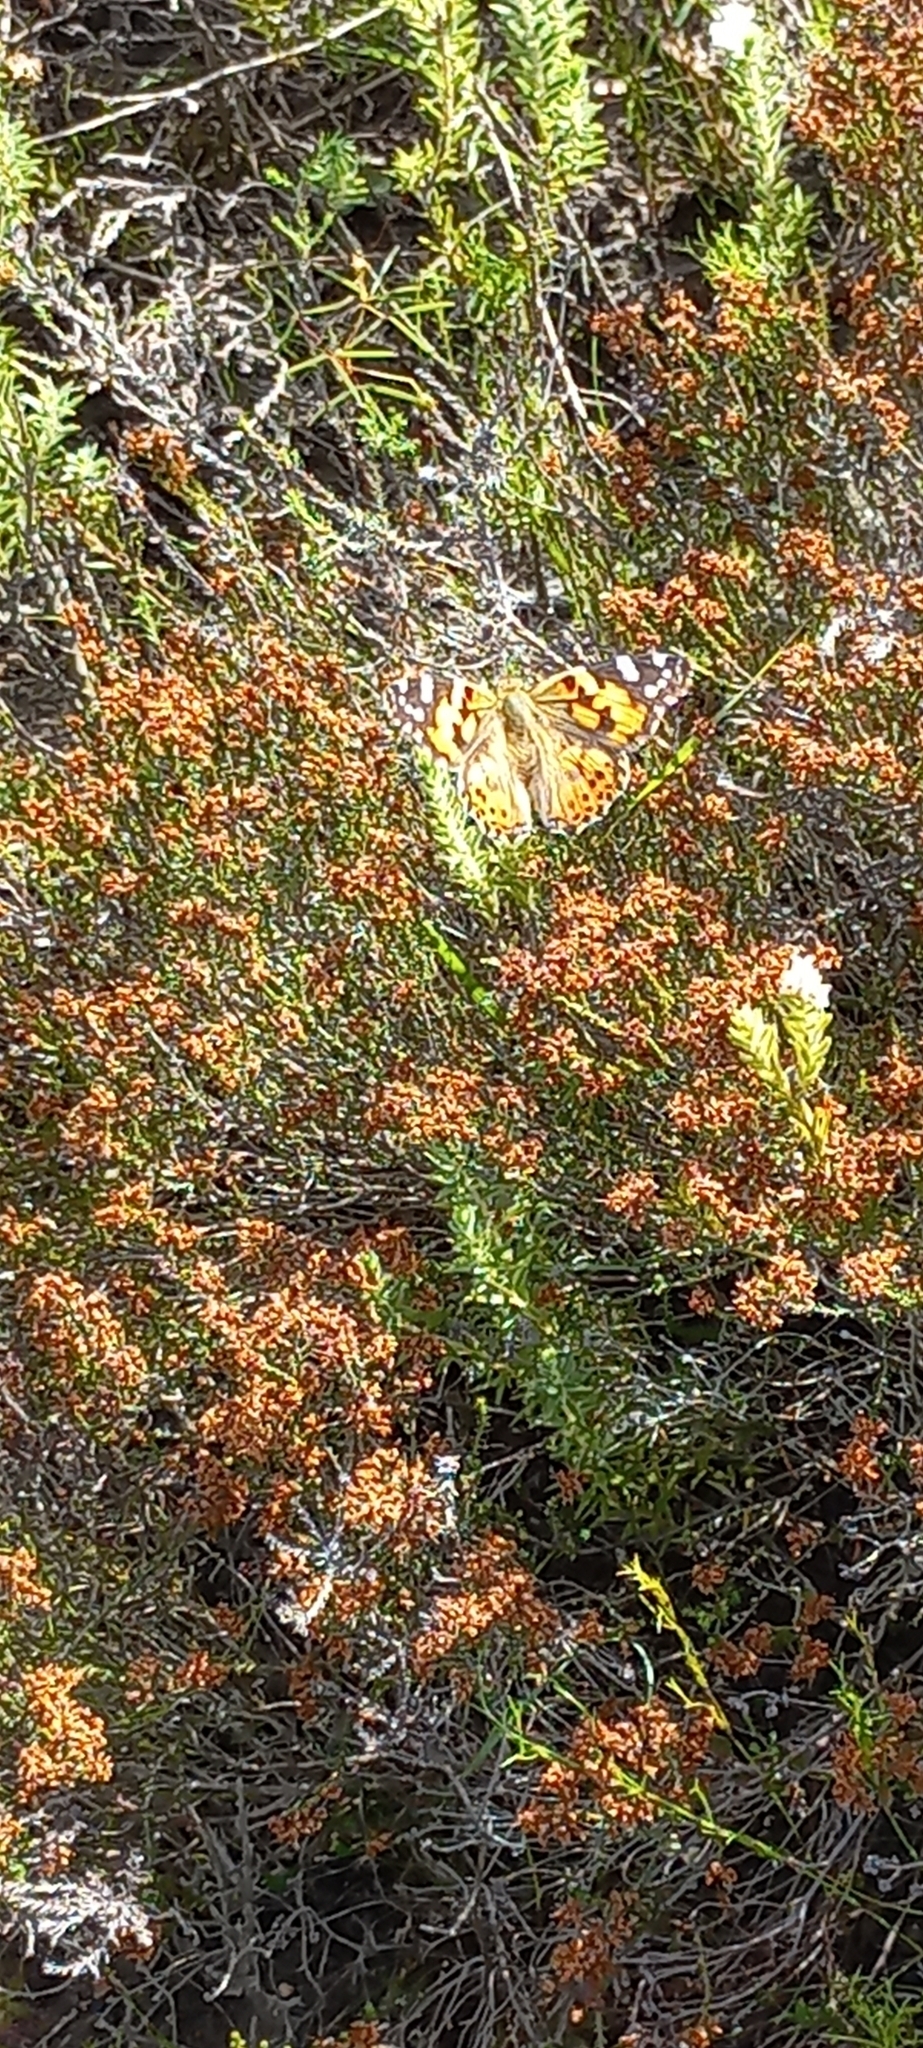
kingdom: Animalia
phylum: Arthropoda
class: Insecta
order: Lepidoptera
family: Nymphalidae
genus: Vanessa
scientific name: Vanessa cardui
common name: Painted lady
